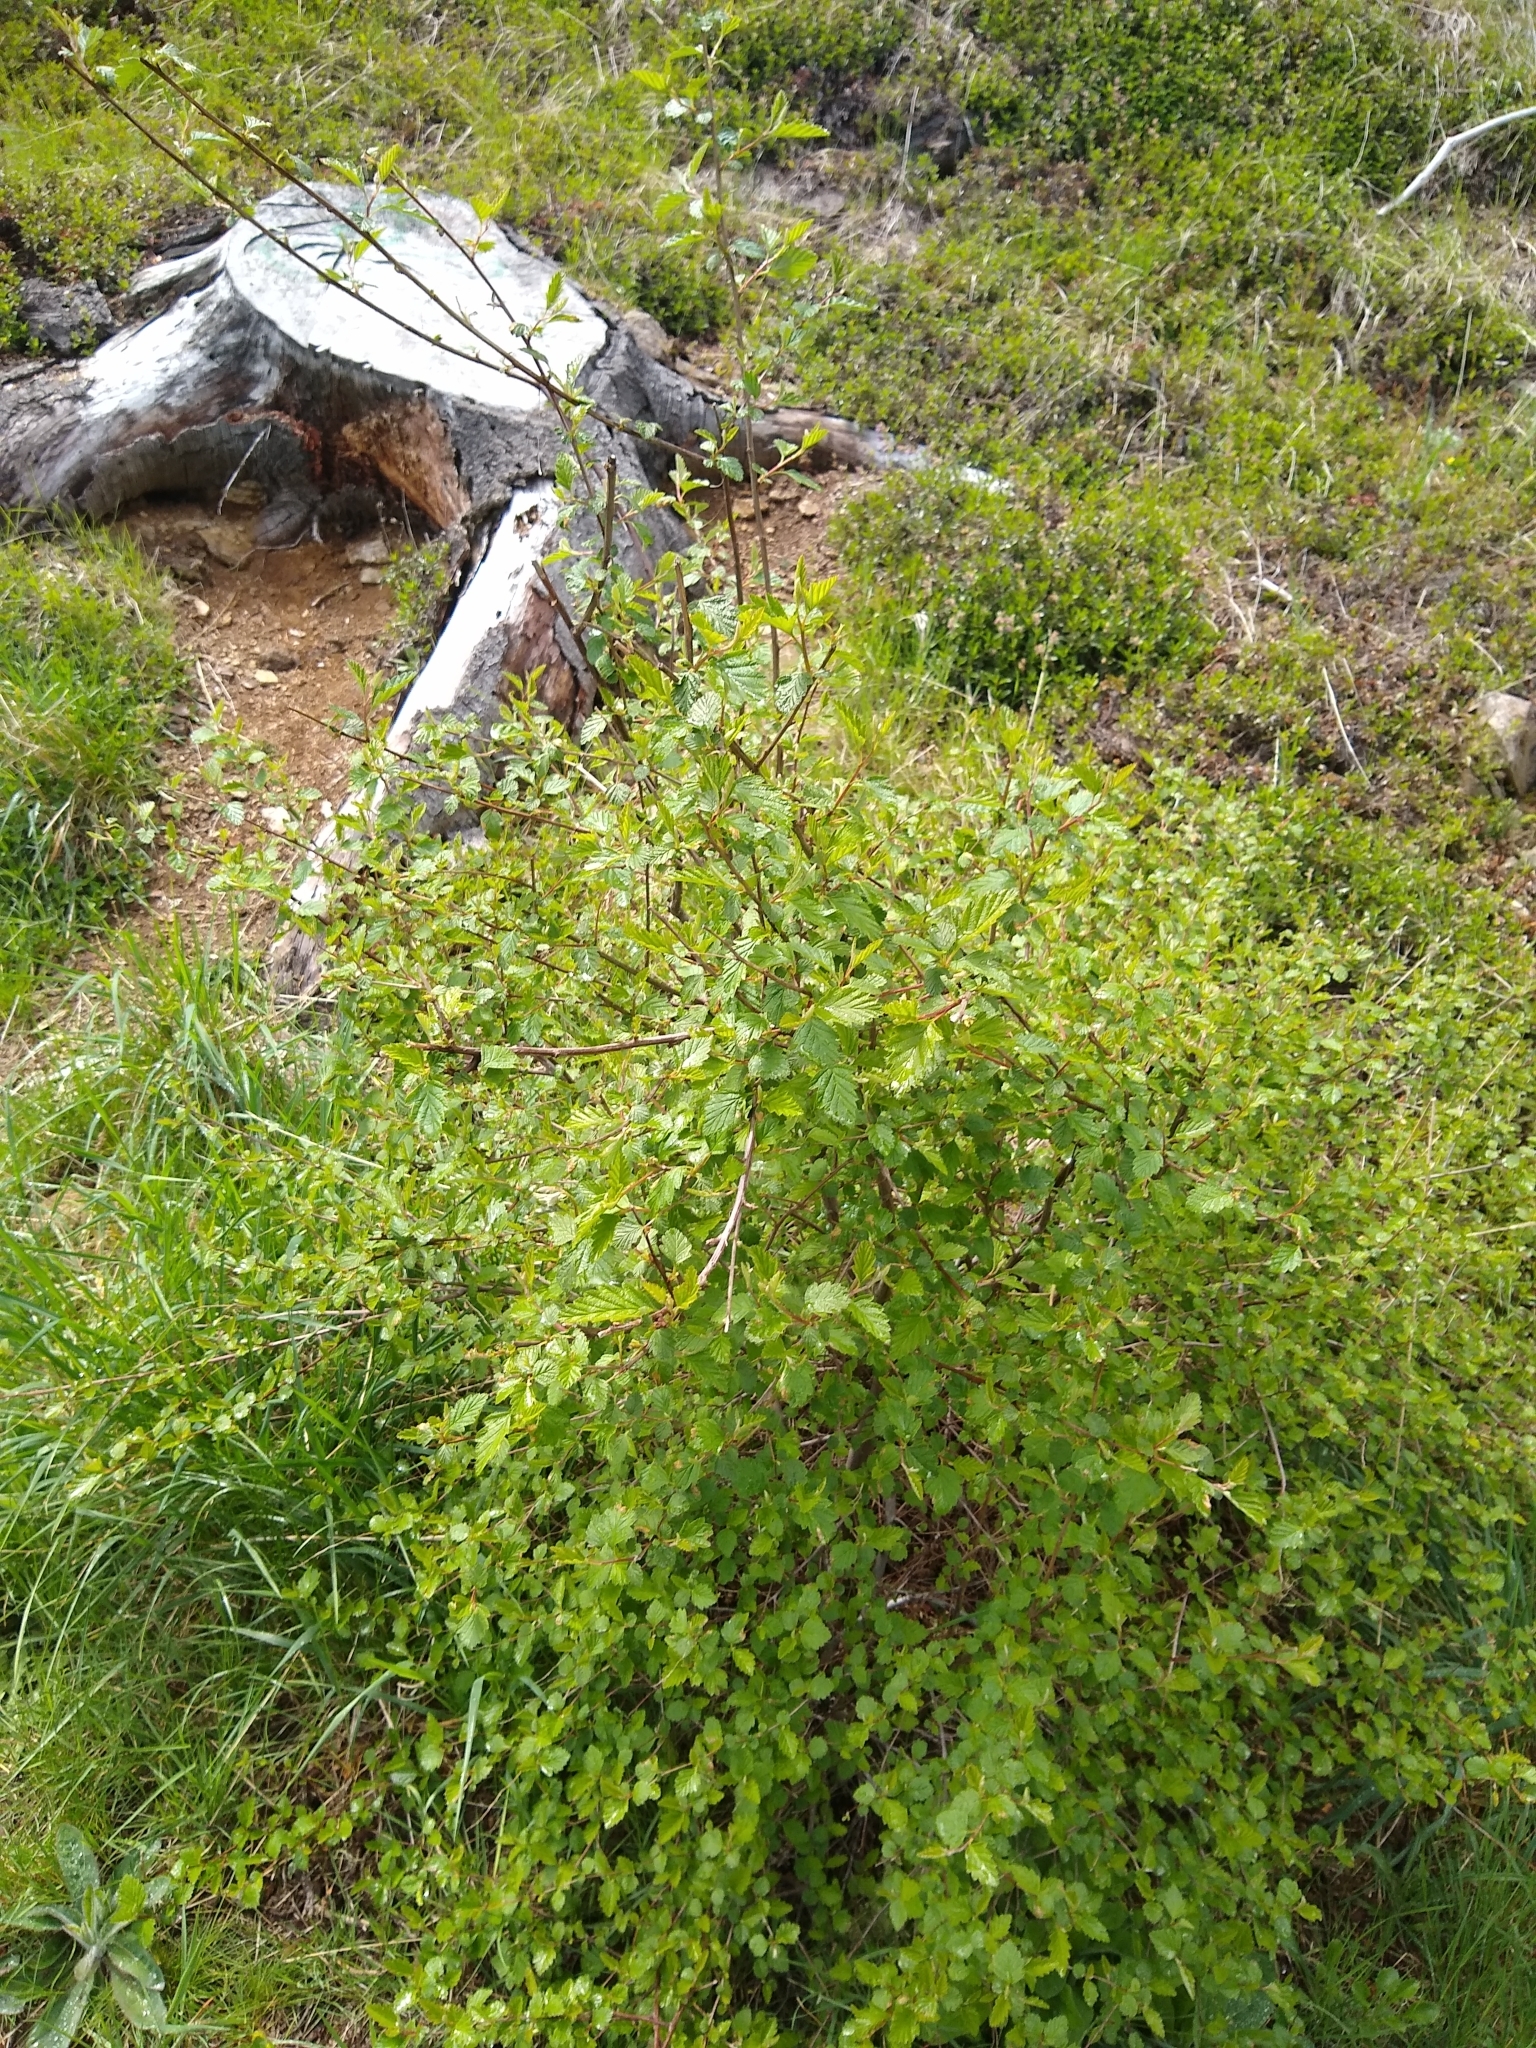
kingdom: Plantae
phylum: Tracheophyta
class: Magnoliopsida
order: Rosales
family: Rosaceae
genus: Holodiscus
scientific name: Holodiscus discolor
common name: Oceanspray
